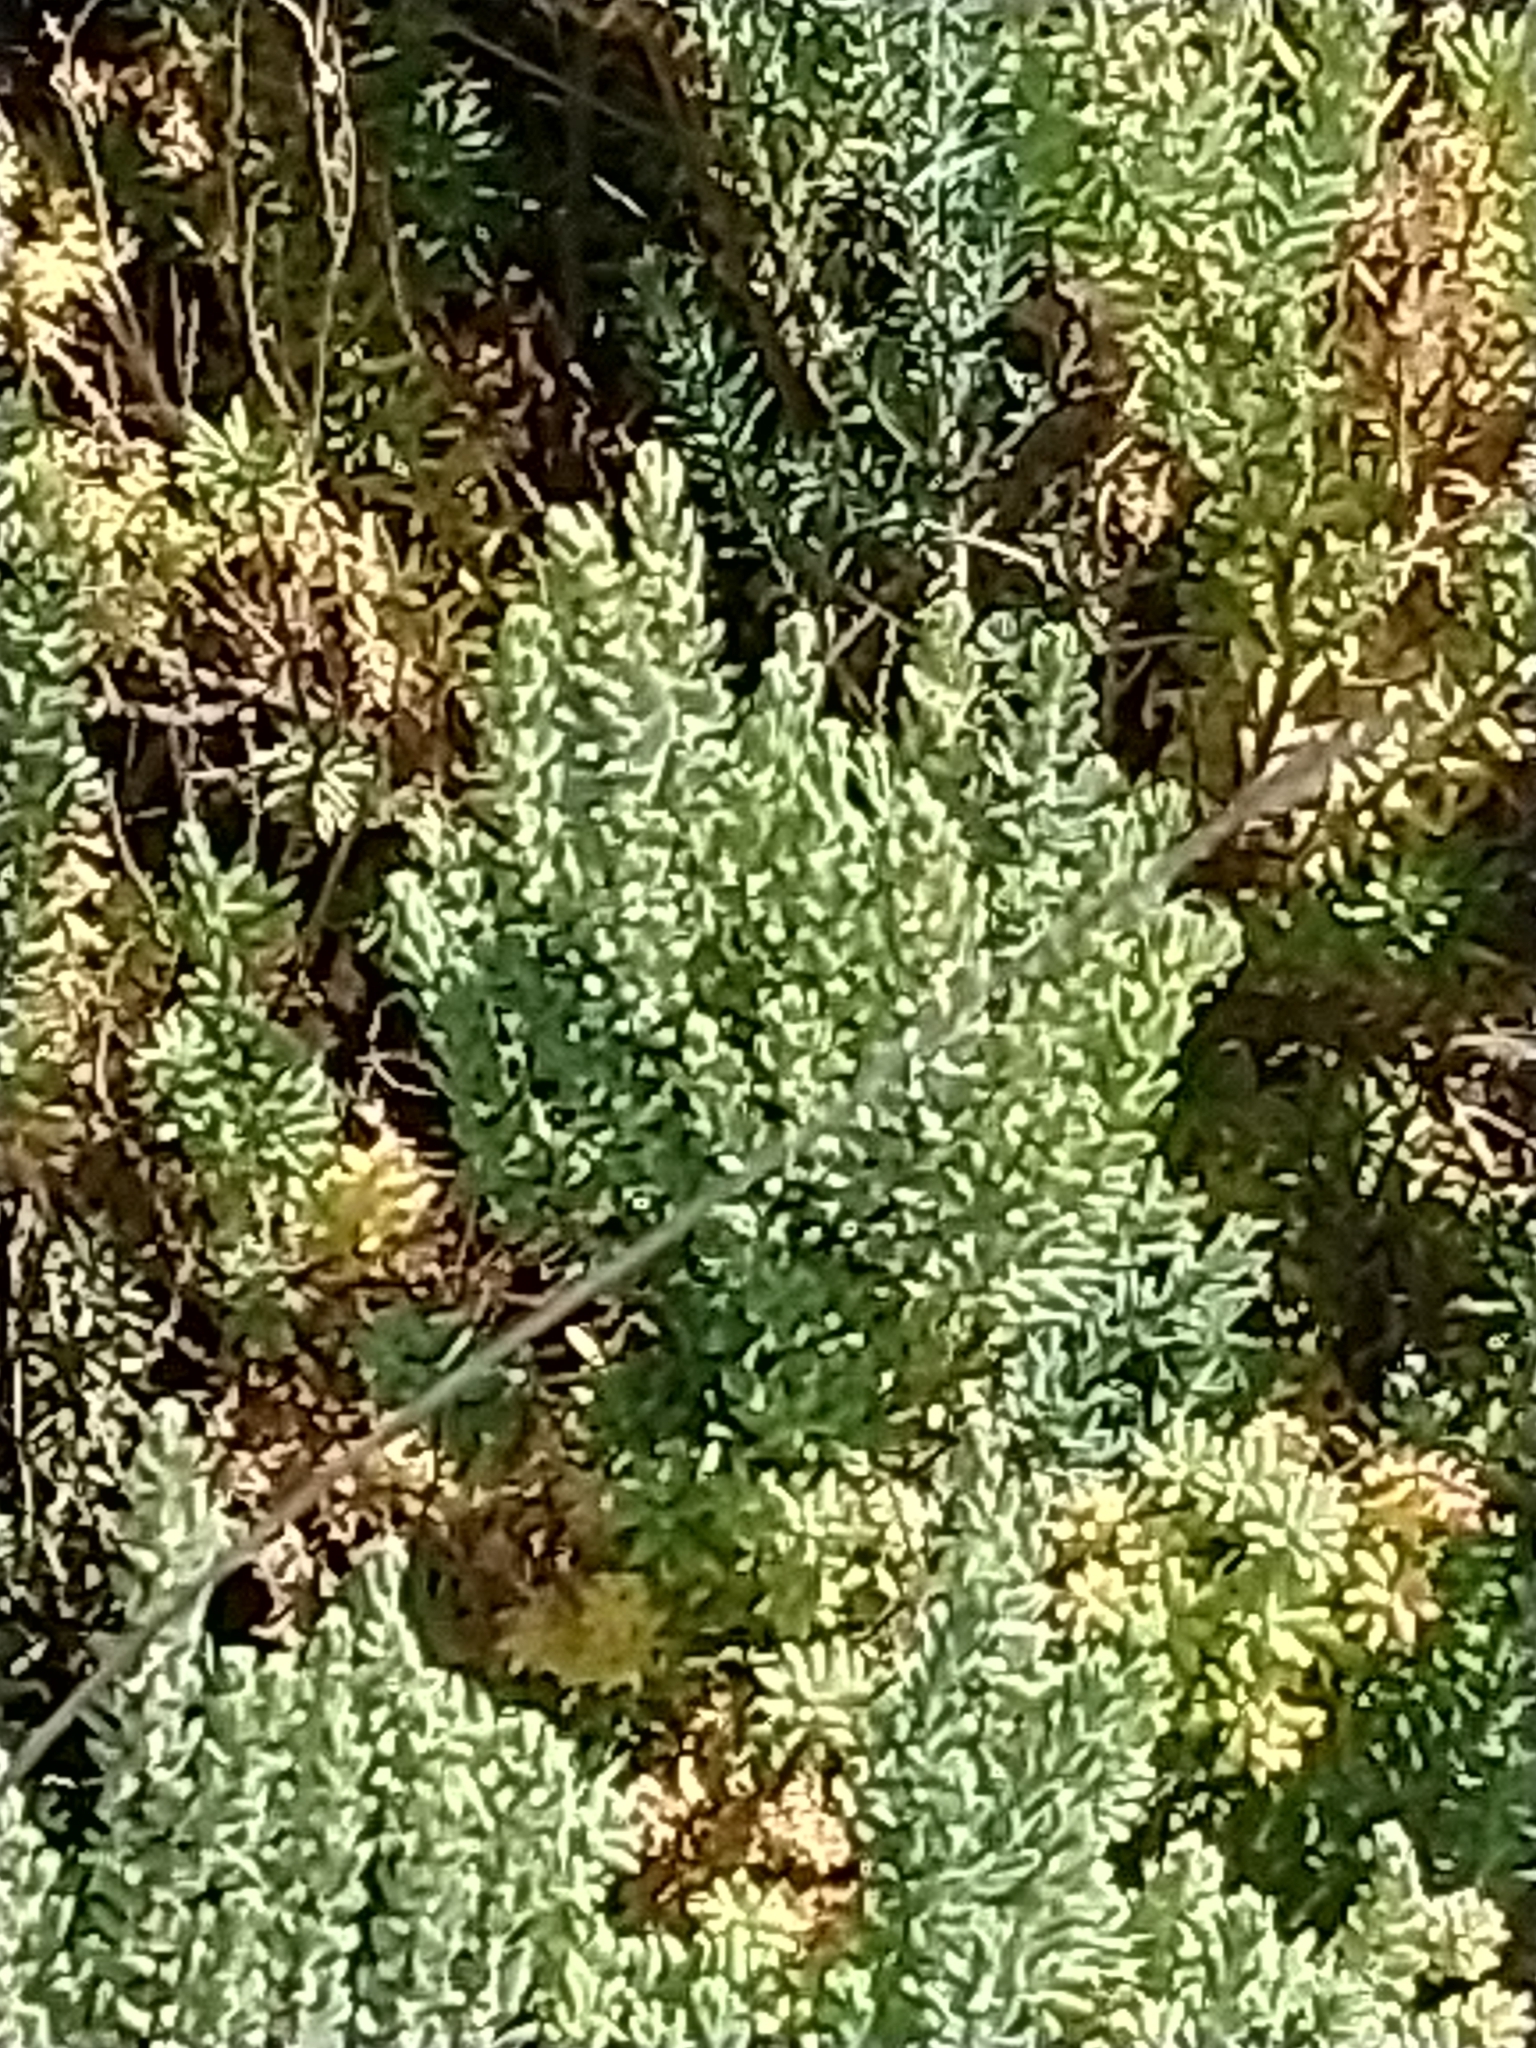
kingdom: Plantae
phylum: Tracheophyta
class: Magnoliopsida
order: Caryophyllales
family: Amaranthaceae
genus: Suaeda
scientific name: Suaeda vera
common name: Shrubby sea-blite
